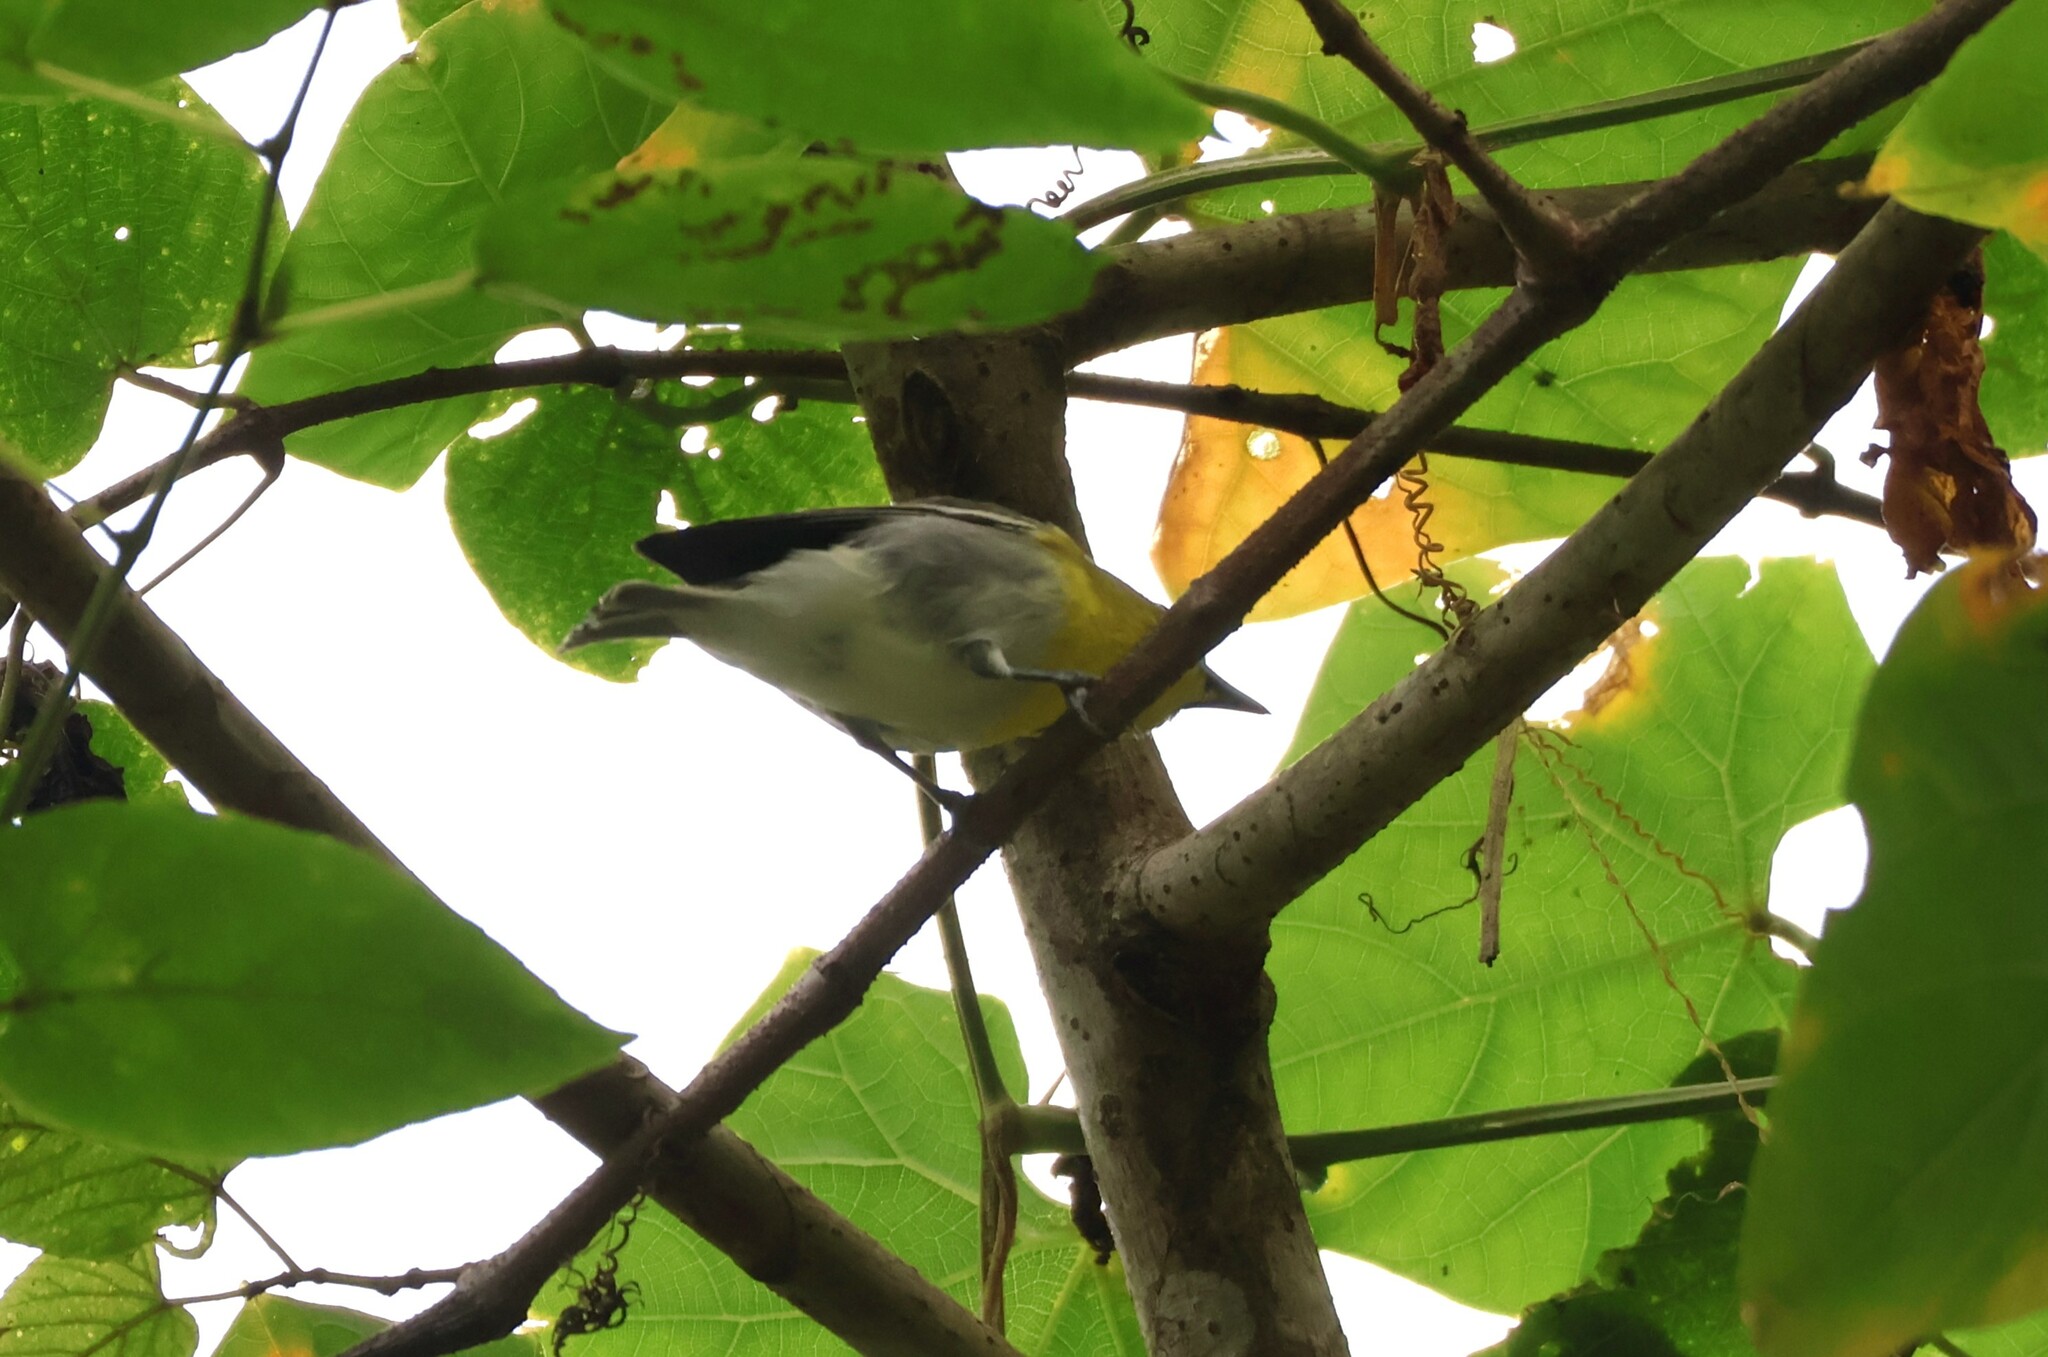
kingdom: Animalia
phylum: Chordata
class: Aves
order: Passeriformes
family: Vireonidae
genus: Vireo
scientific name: Vireo flavifrons
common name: Yellow-throated vireo
